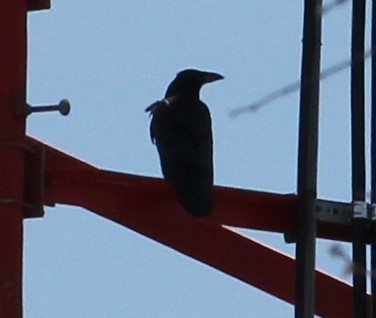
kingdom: Animalia
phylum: Chordata
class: Aves
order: Passeriformes
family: Corvidae
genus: Corvus
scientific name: Corvus corax
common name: Common raven
